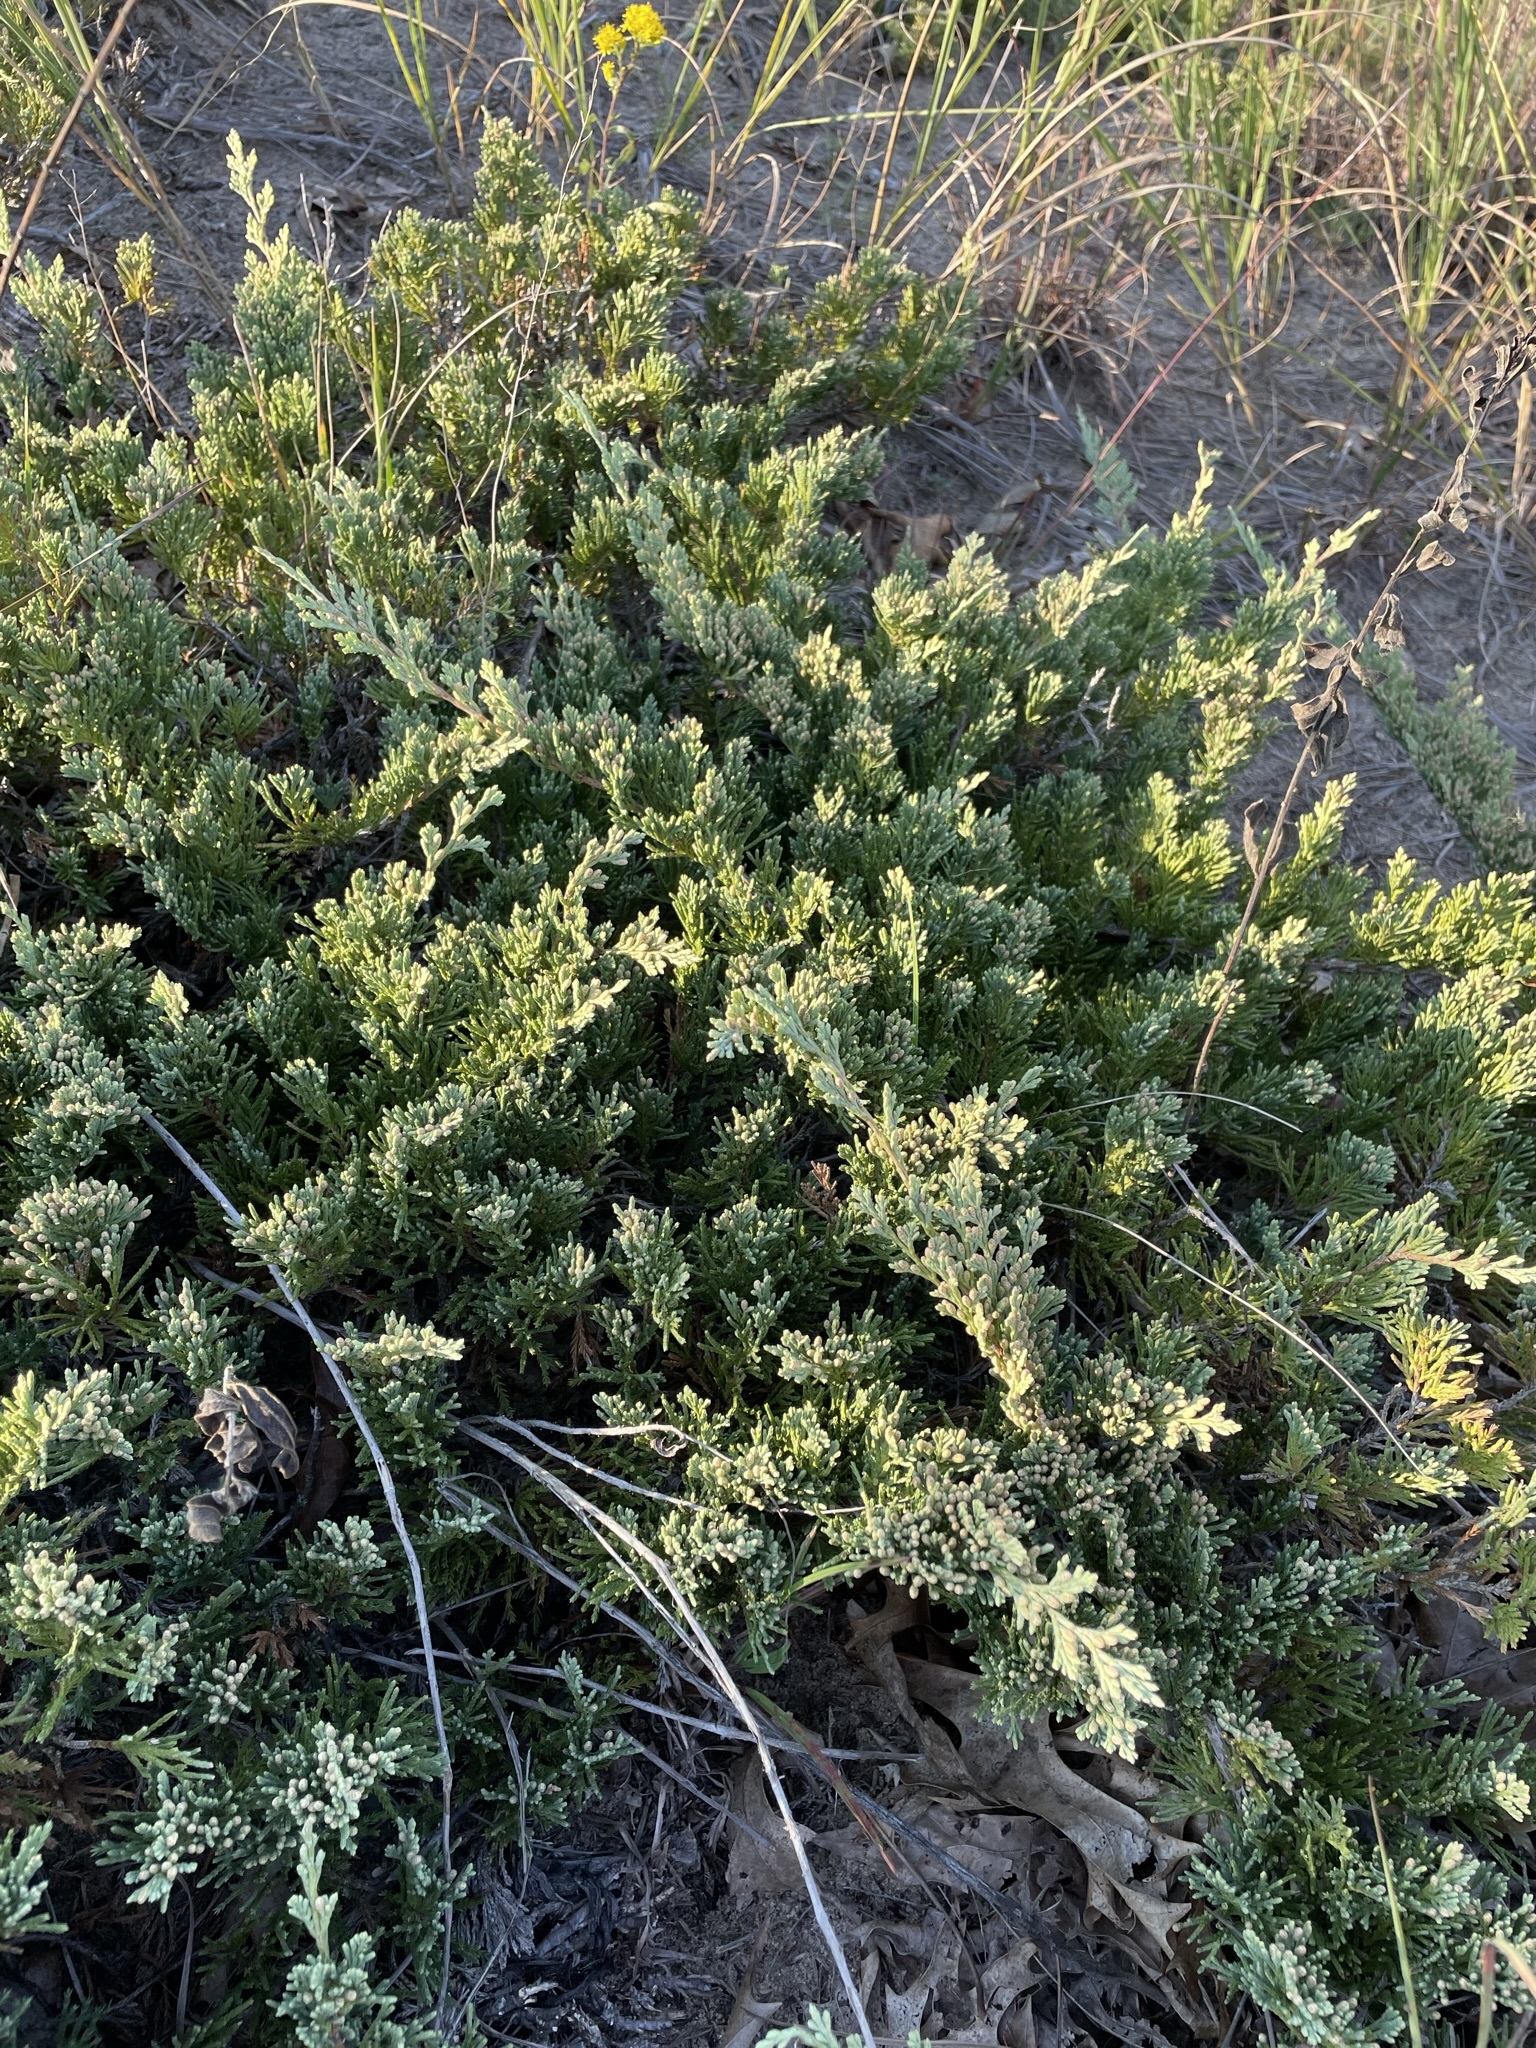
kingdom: Plantae
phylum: Tracheophyta
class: Pinopsida
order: Pinales
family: Cupressaceae
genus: Juniperus
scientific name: Juniperus horizontalis
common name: Creeping juniper
